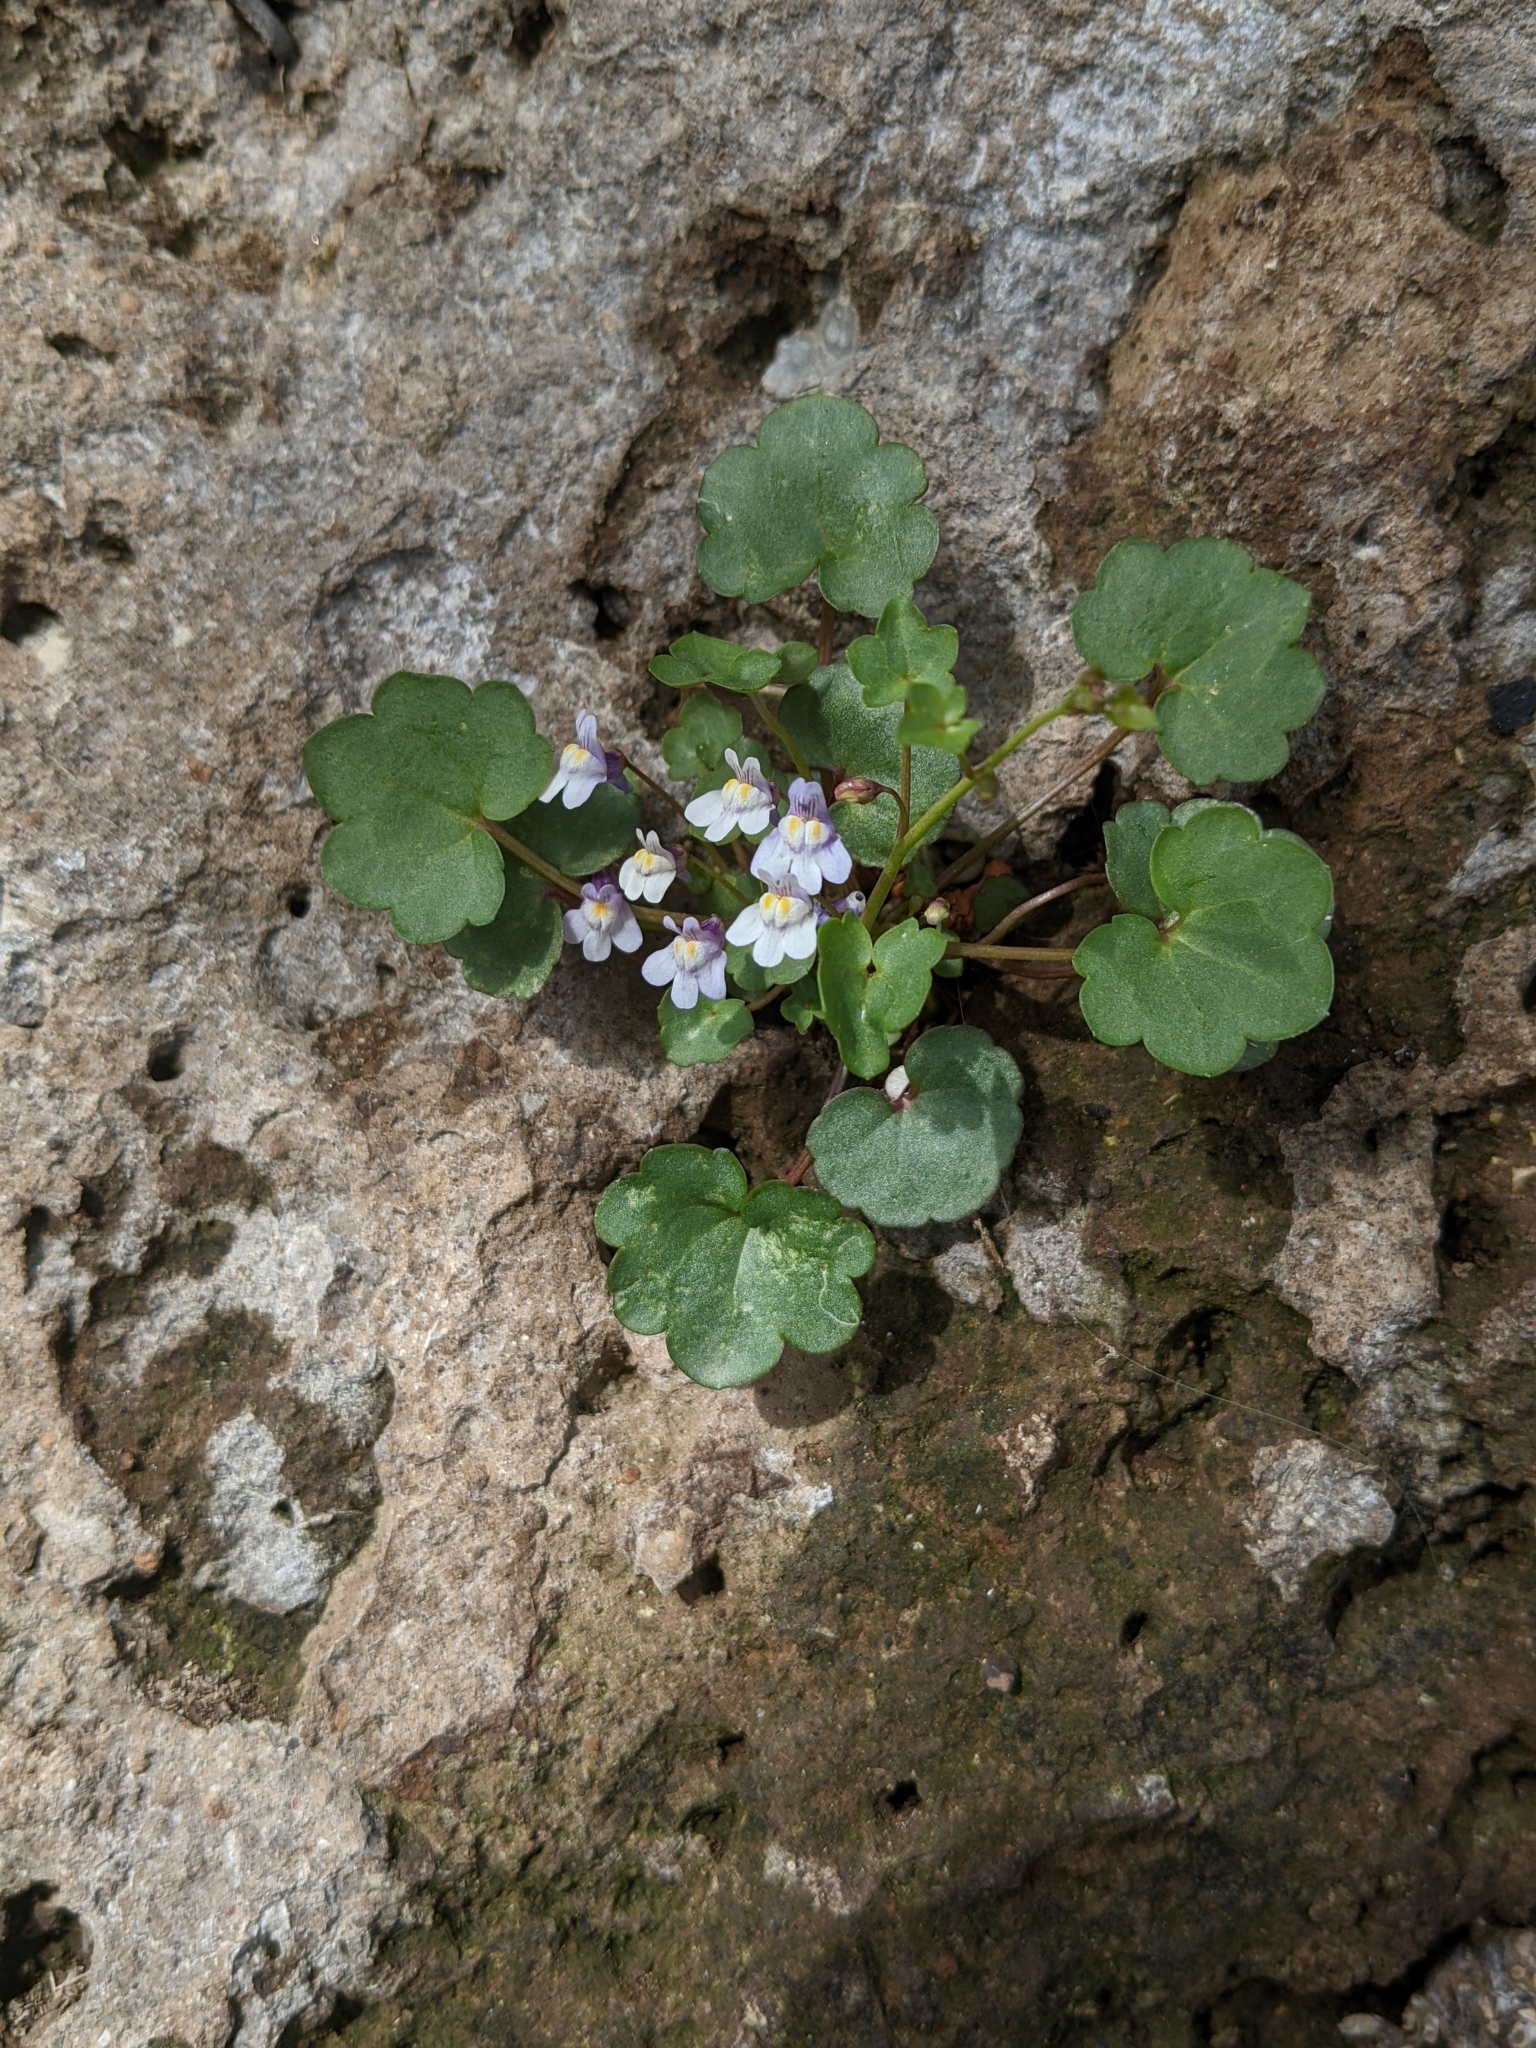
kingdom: Plantae
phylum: Tracheophyta
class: Magnoliopsida
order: Lamiales
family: Plantaginaceae
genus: Cymbalaria
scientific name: Cymbalaria muralis
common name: Ivy-leaved toadflax
